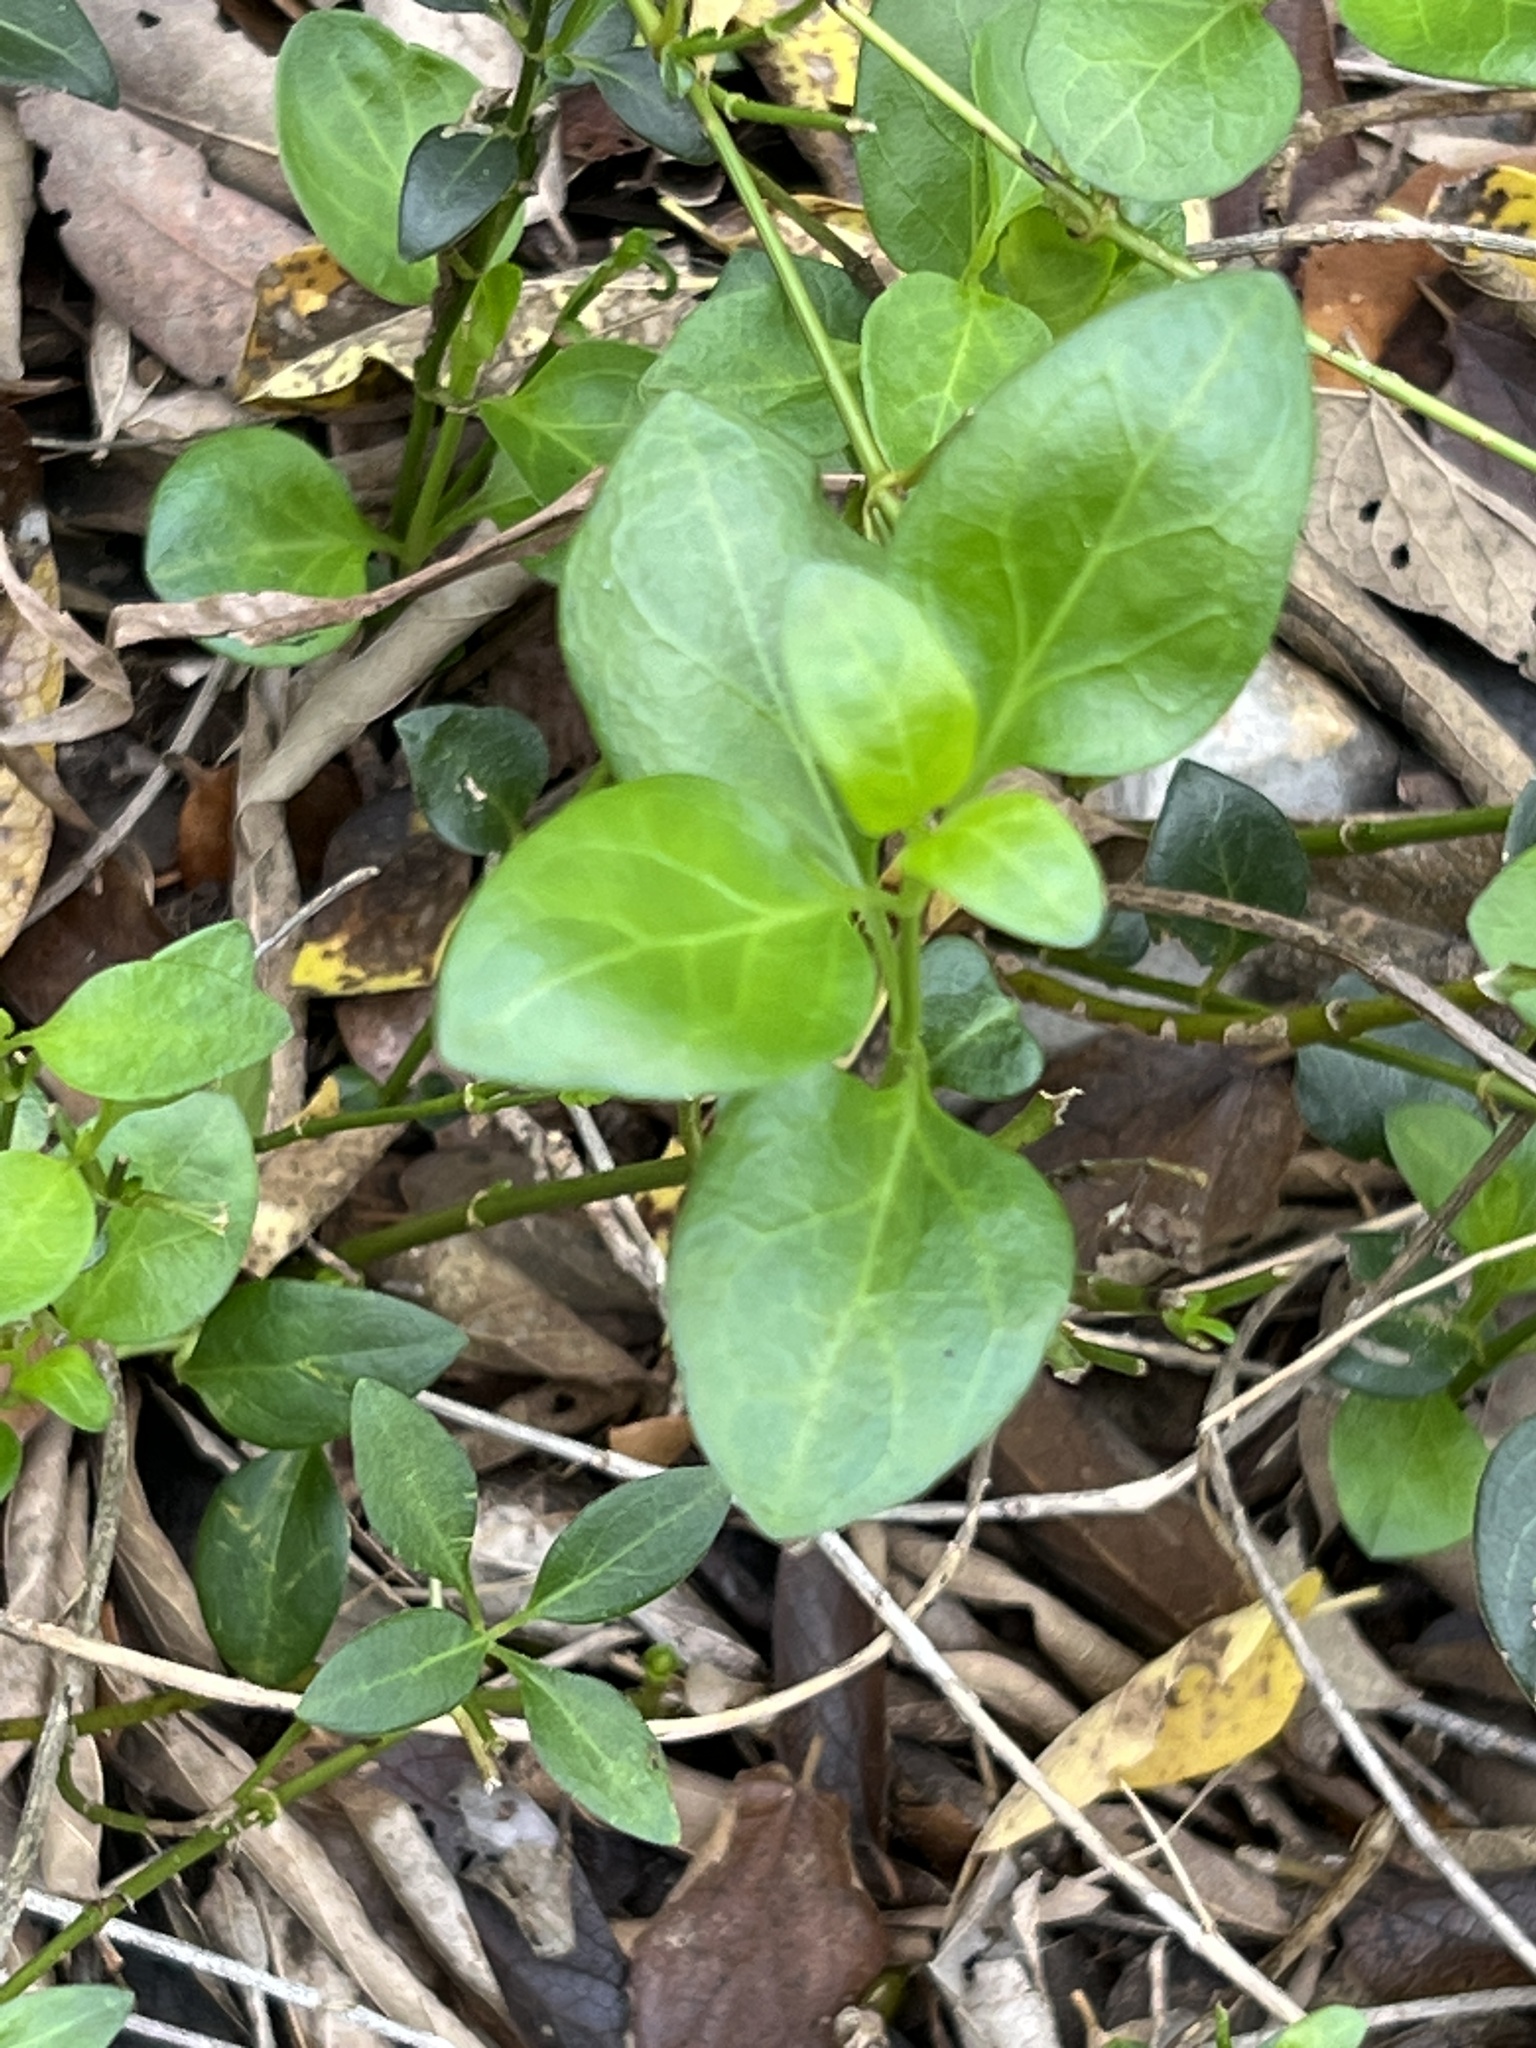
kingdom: Plantae
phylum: Tracheophyta
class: Magnoliopsida
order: Gentianales
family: Apocynaceae
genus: Vinca
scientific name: Vinca major
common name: Greater periwinkle
